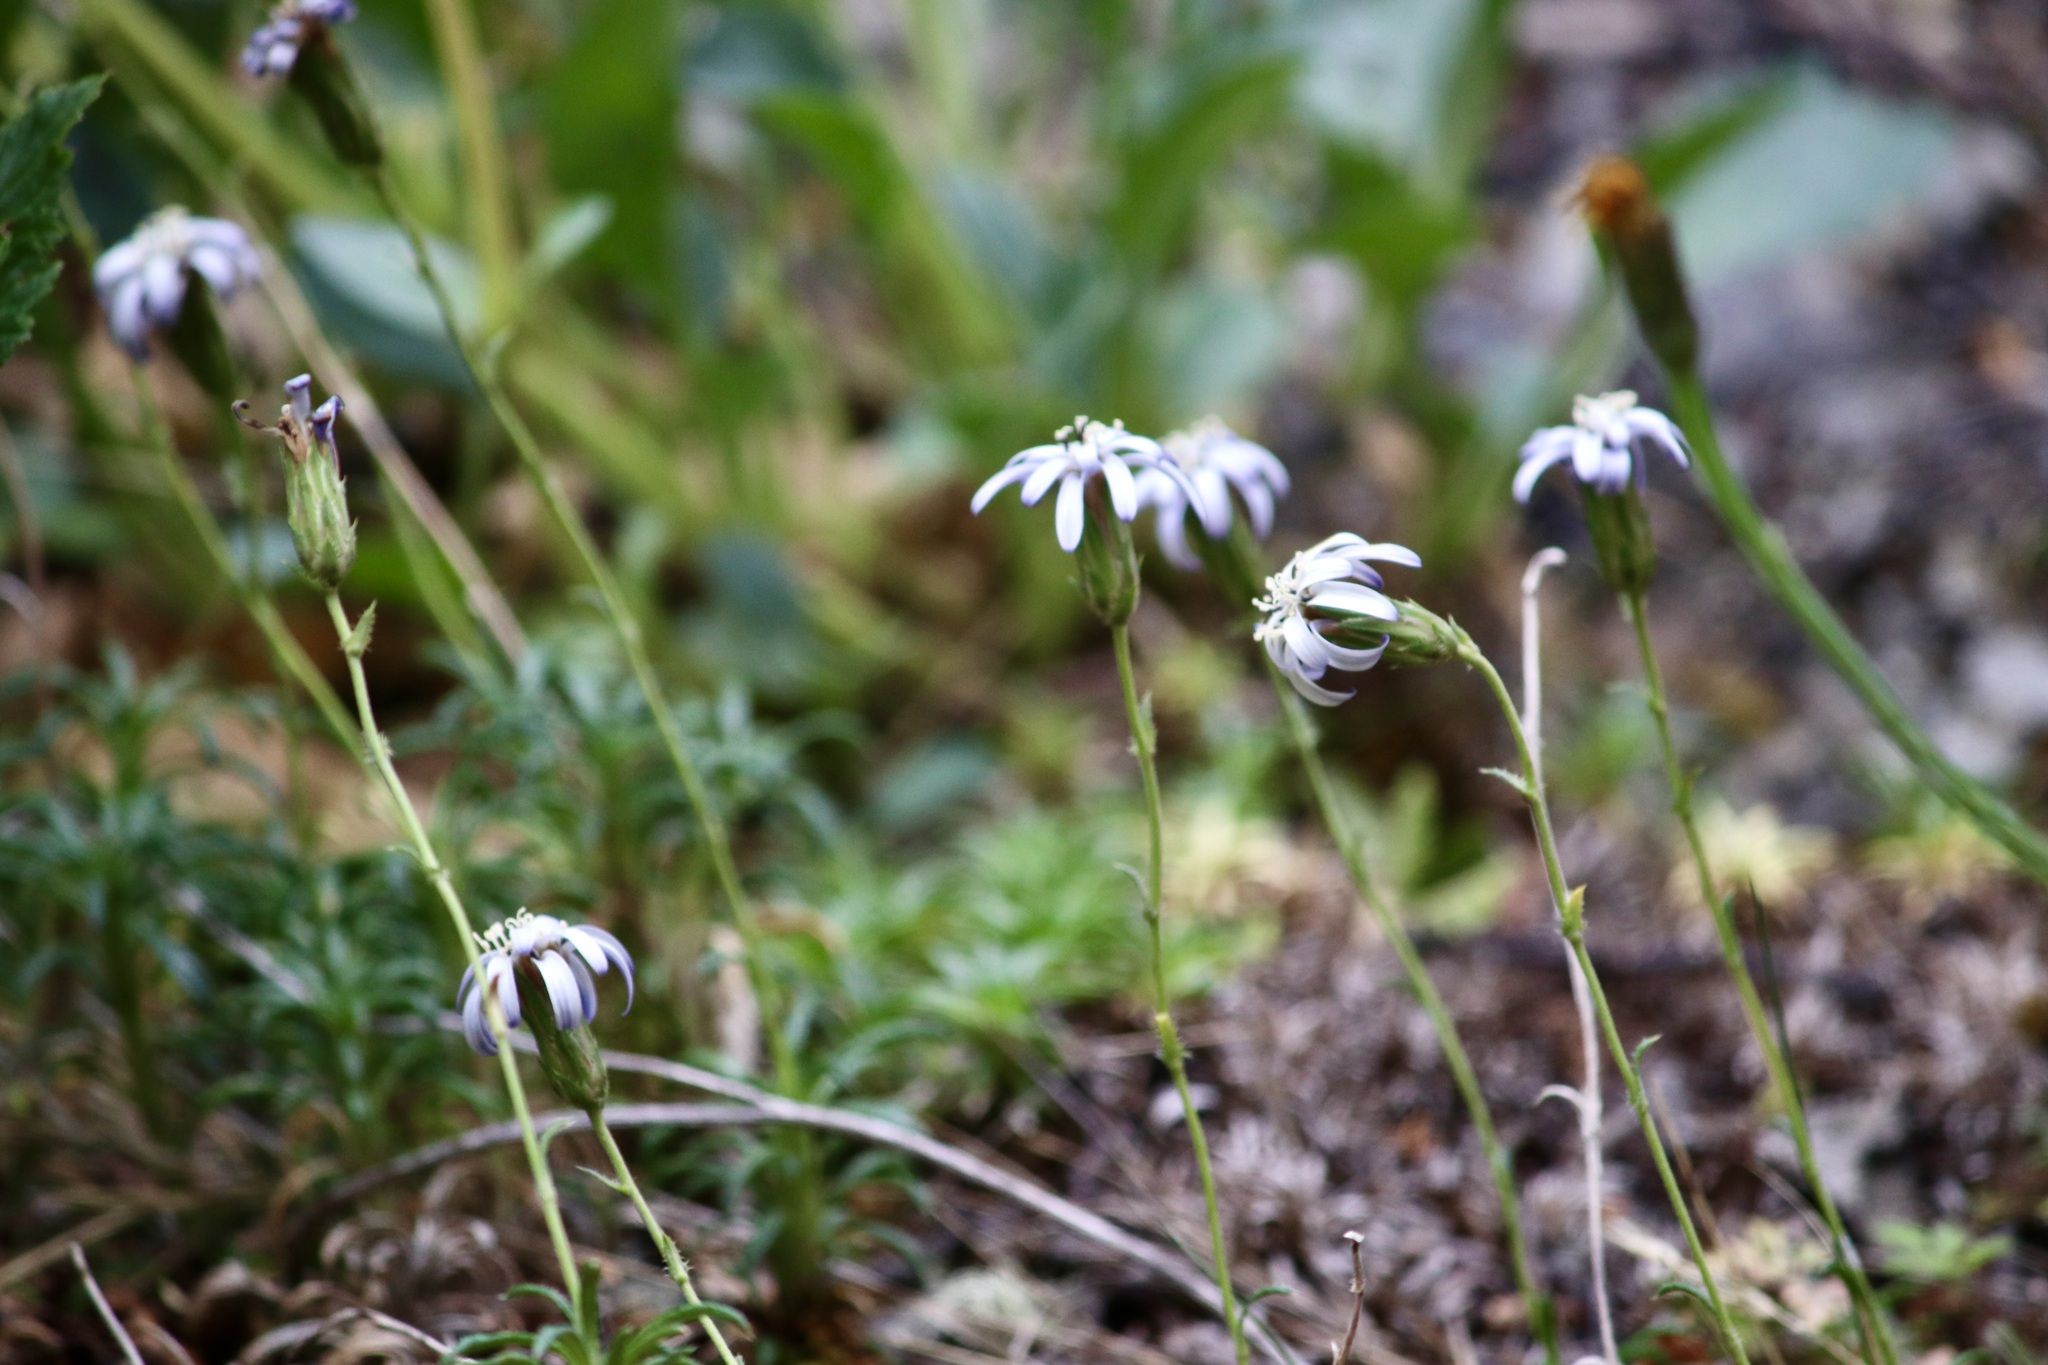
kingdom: Plantae
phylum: Tracheophyta
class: Magnoliopsida
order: Asterales
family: Asteraceae
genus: Perezia
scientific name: Perezia recurvata
